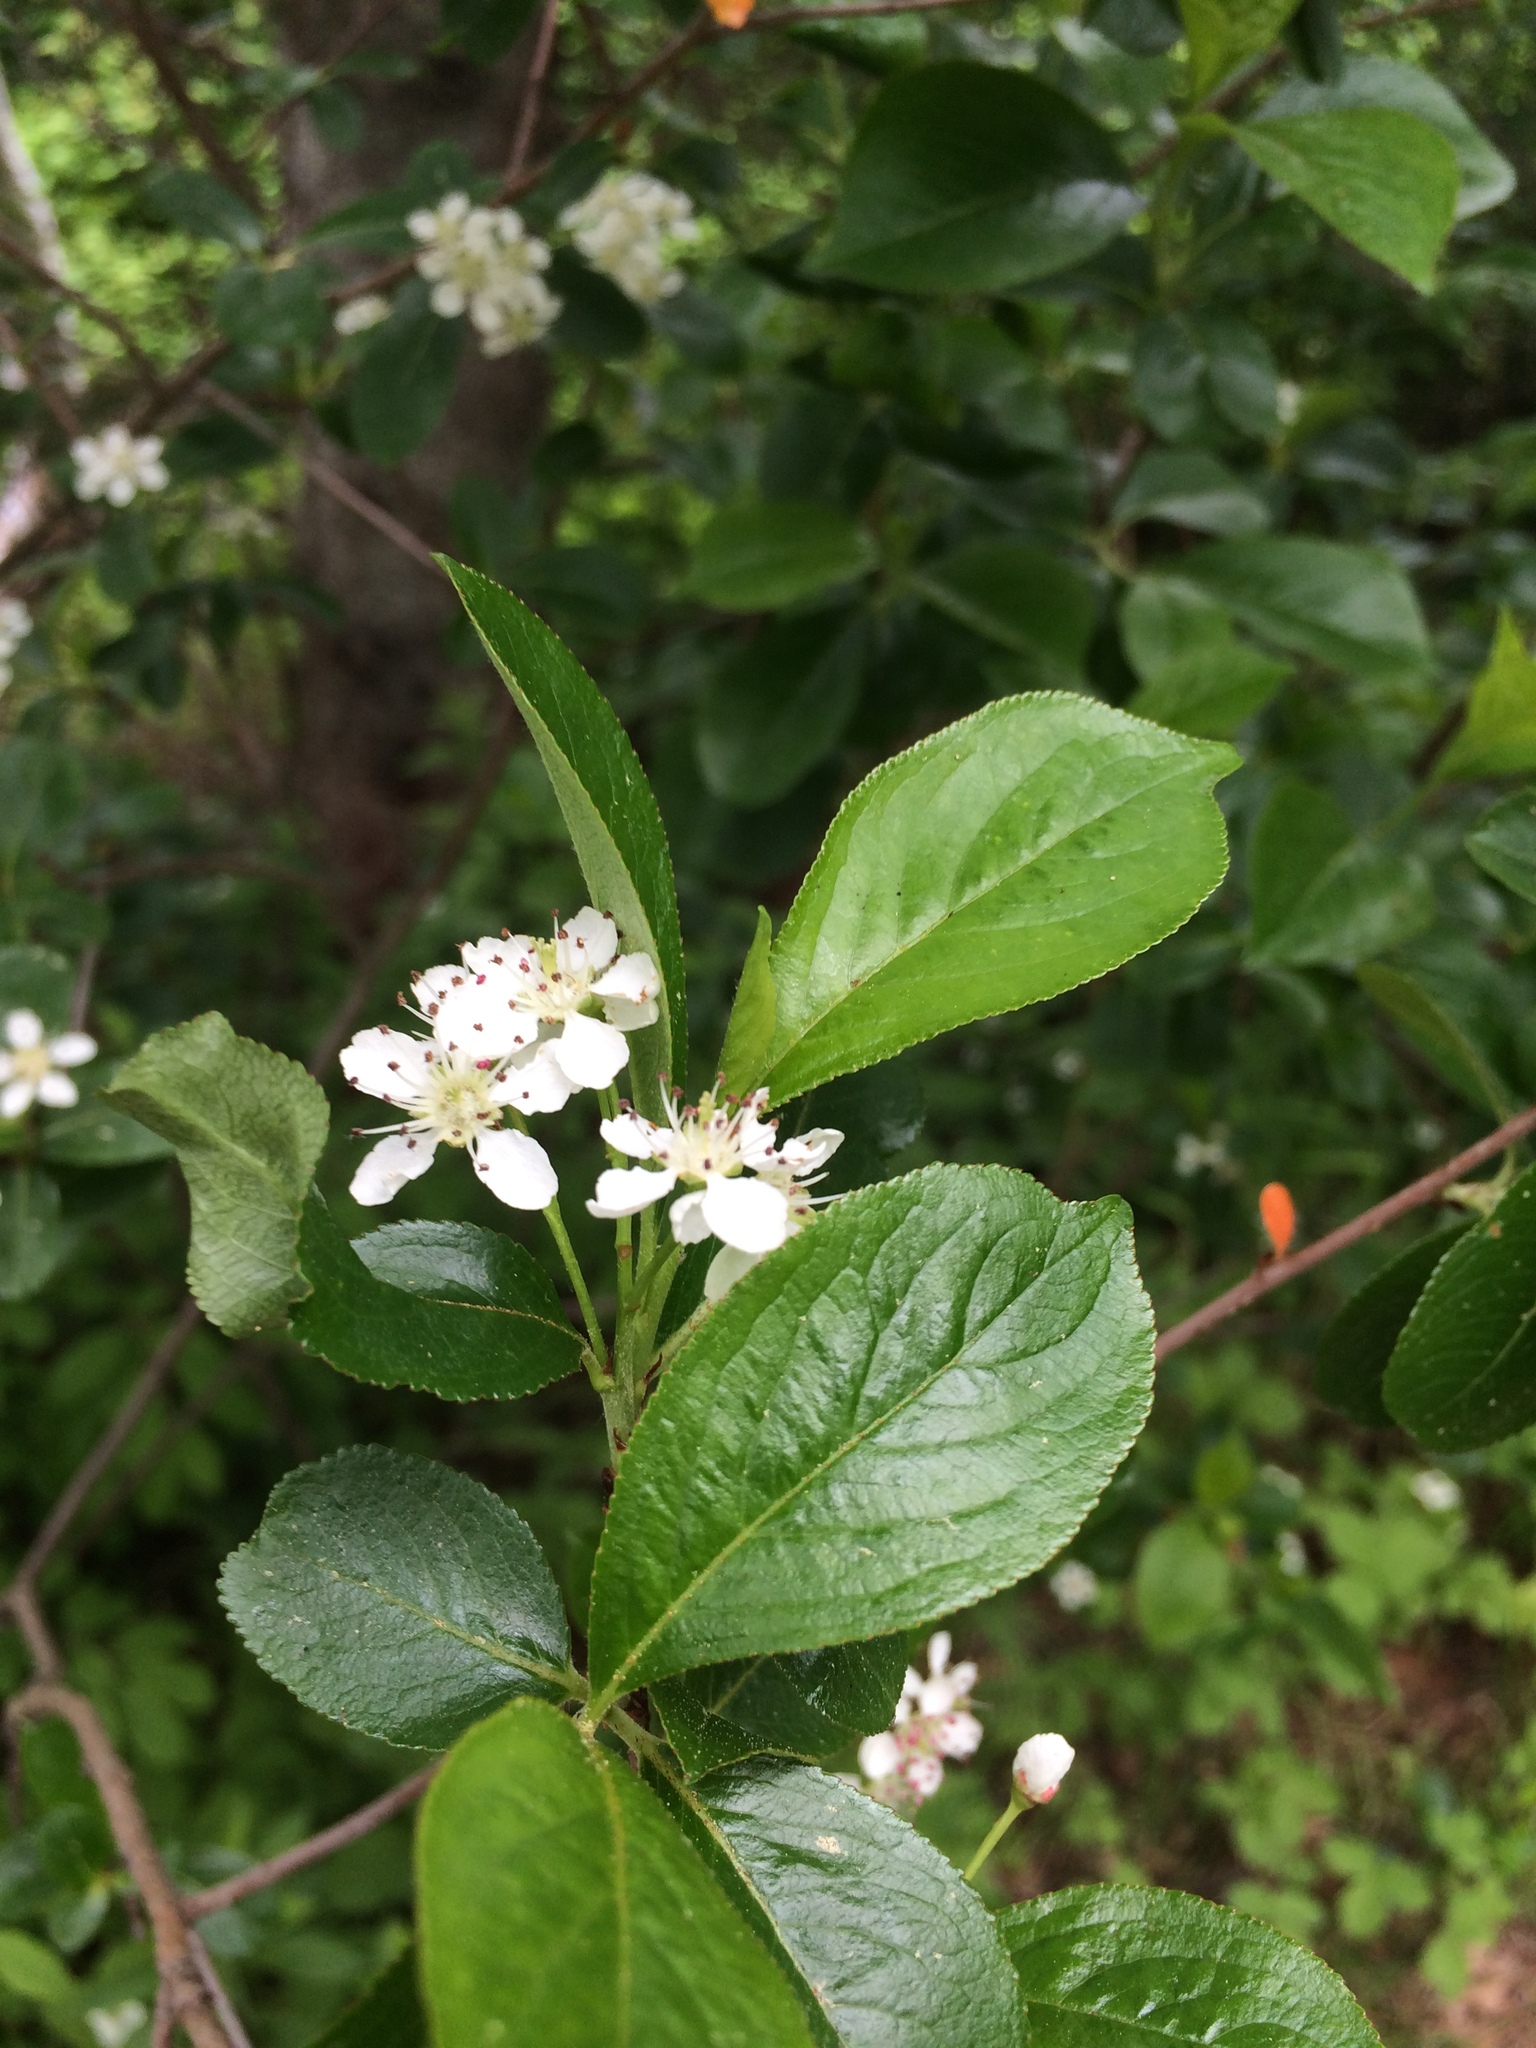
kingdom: Plantae
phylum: Tracheophyta
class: Magnoliopsida
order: Rosales
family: Rosaceae
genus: Aronia
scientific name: Aronia melanocarpa
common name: Black chokeberry
